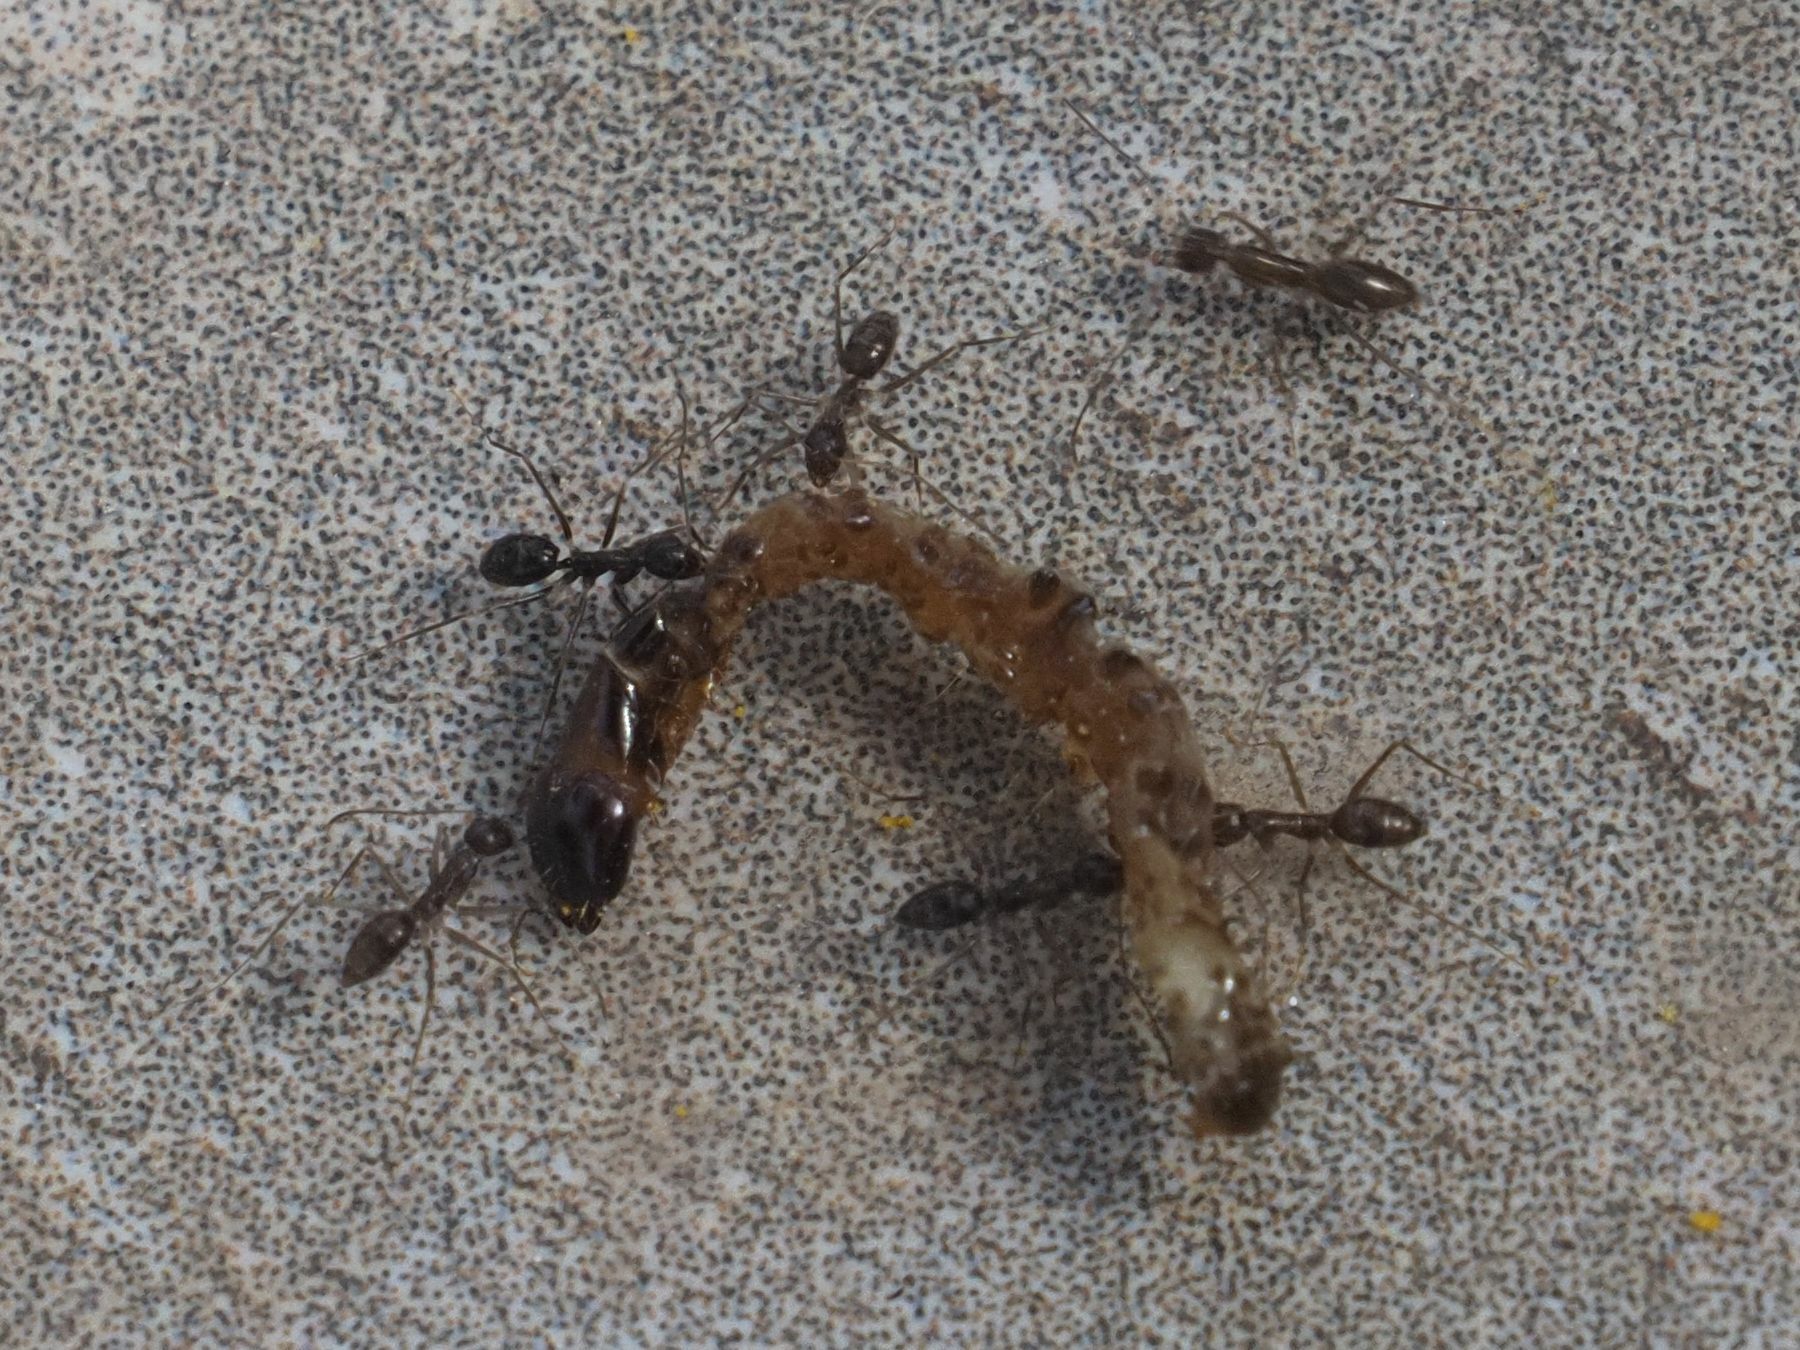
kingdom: Animalia
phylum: Arthropoda
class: Insecta
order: Hymenoptera
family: Formicidae
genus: Paratrechina
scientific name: Paratrechina longicornis
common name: Longhorned crazy ant
